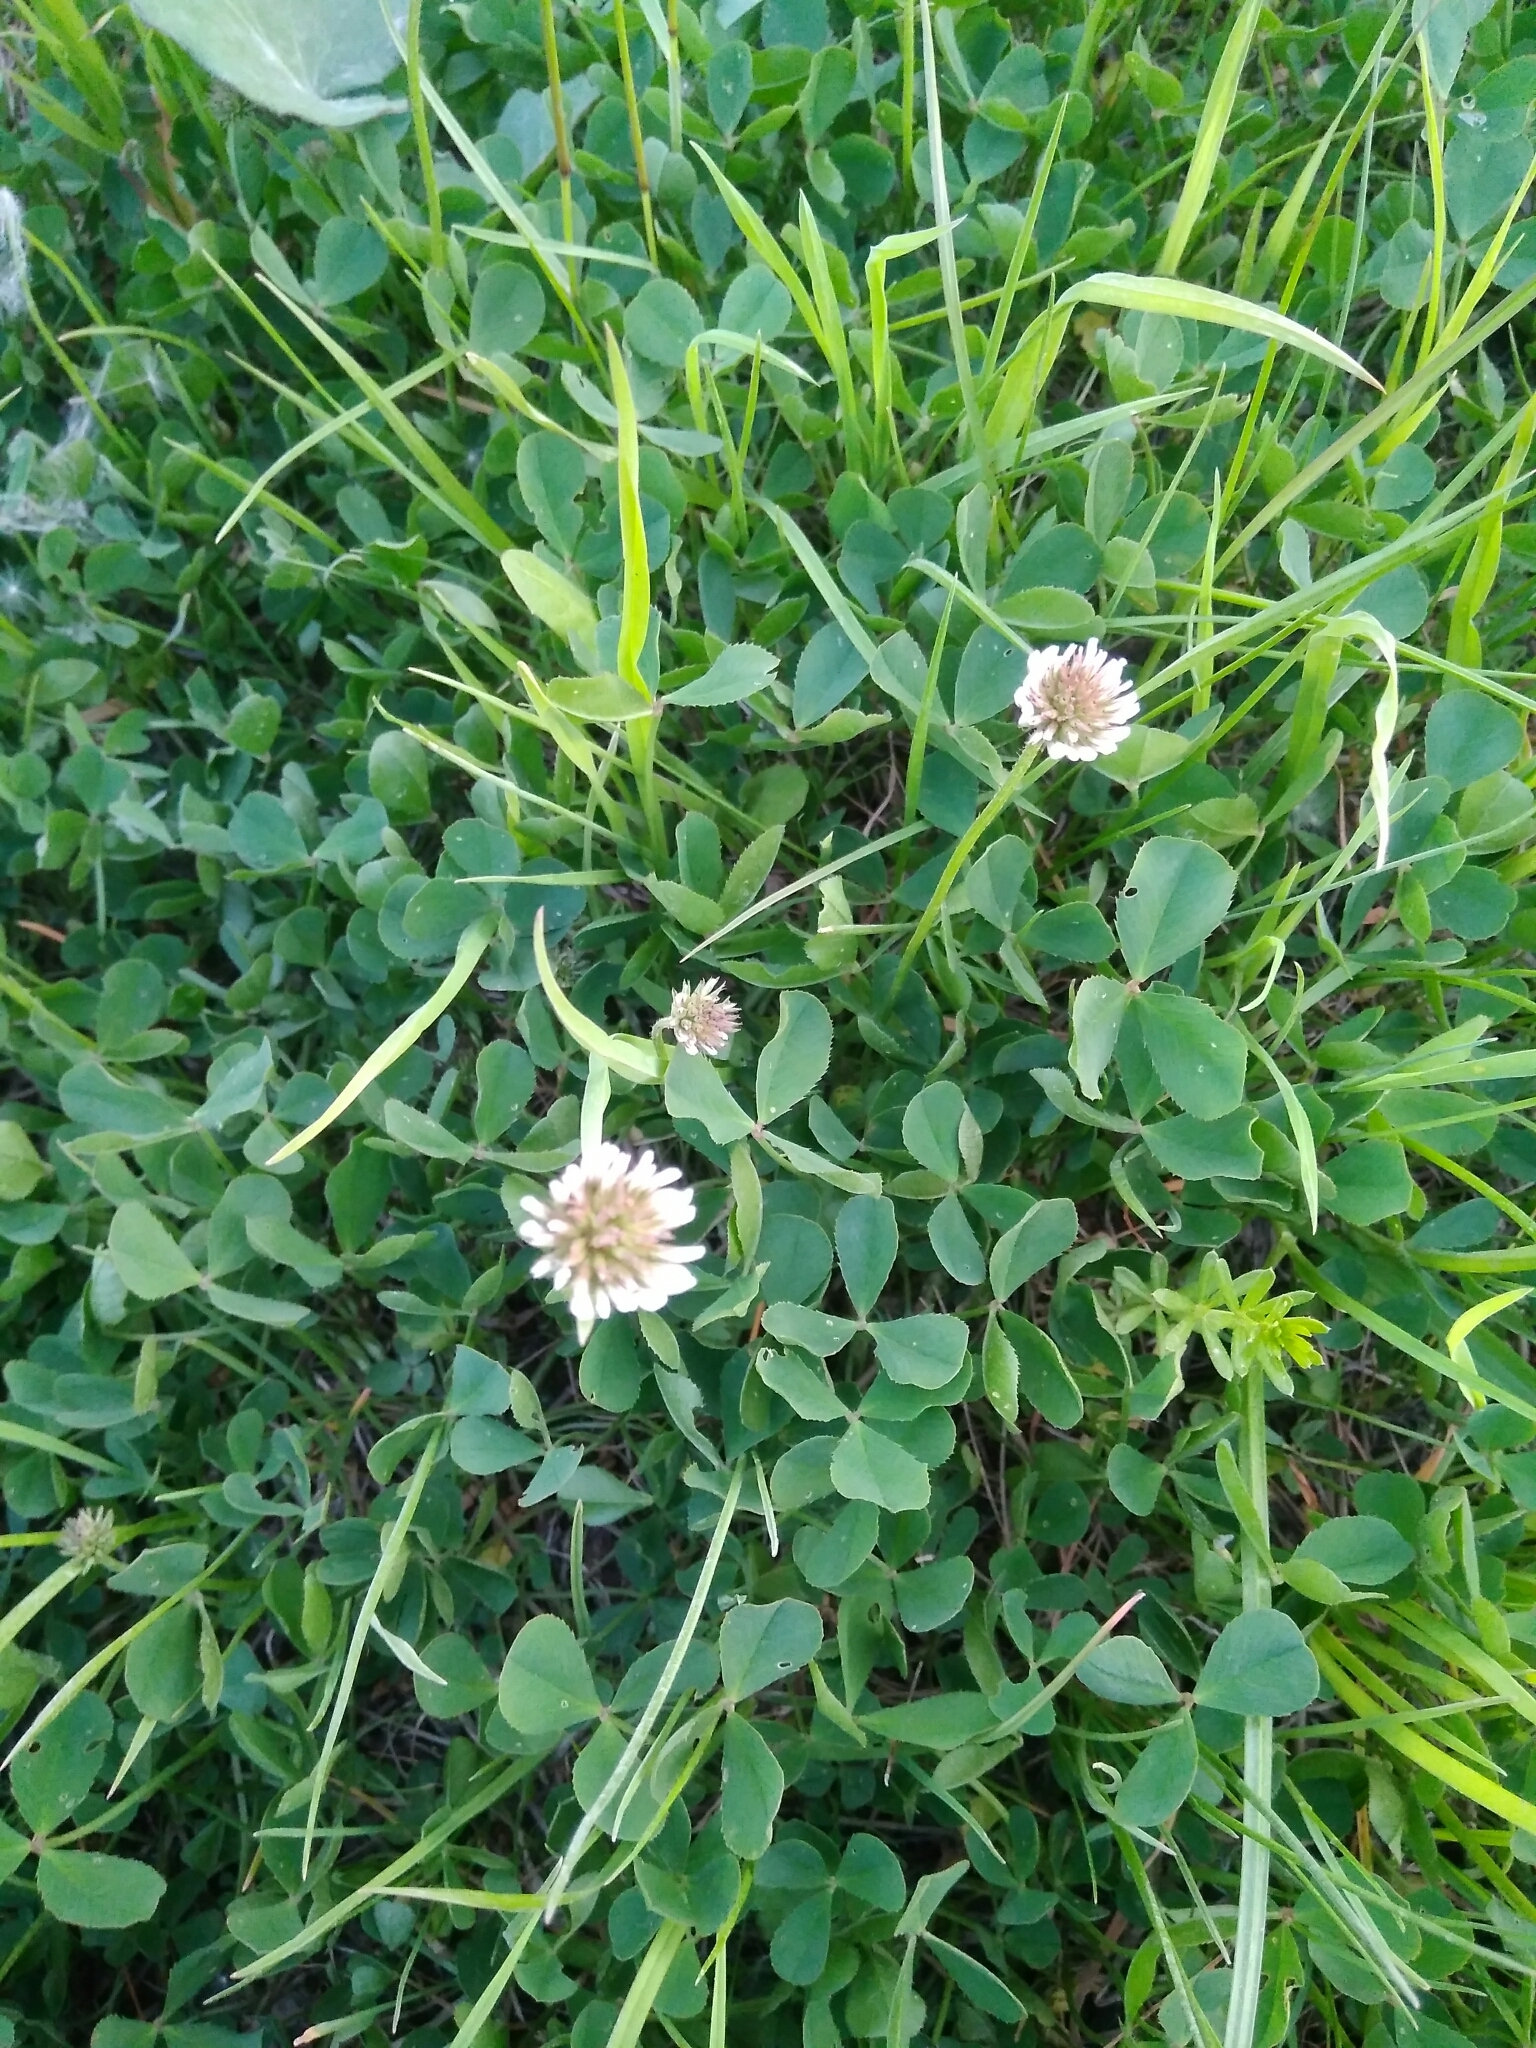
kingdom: Plantae
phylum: Tracheophyta
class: Magnoliopsida
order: Fabales
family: Fabaceae
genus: Trifolium
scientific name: Trifolium repens
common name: White clover
